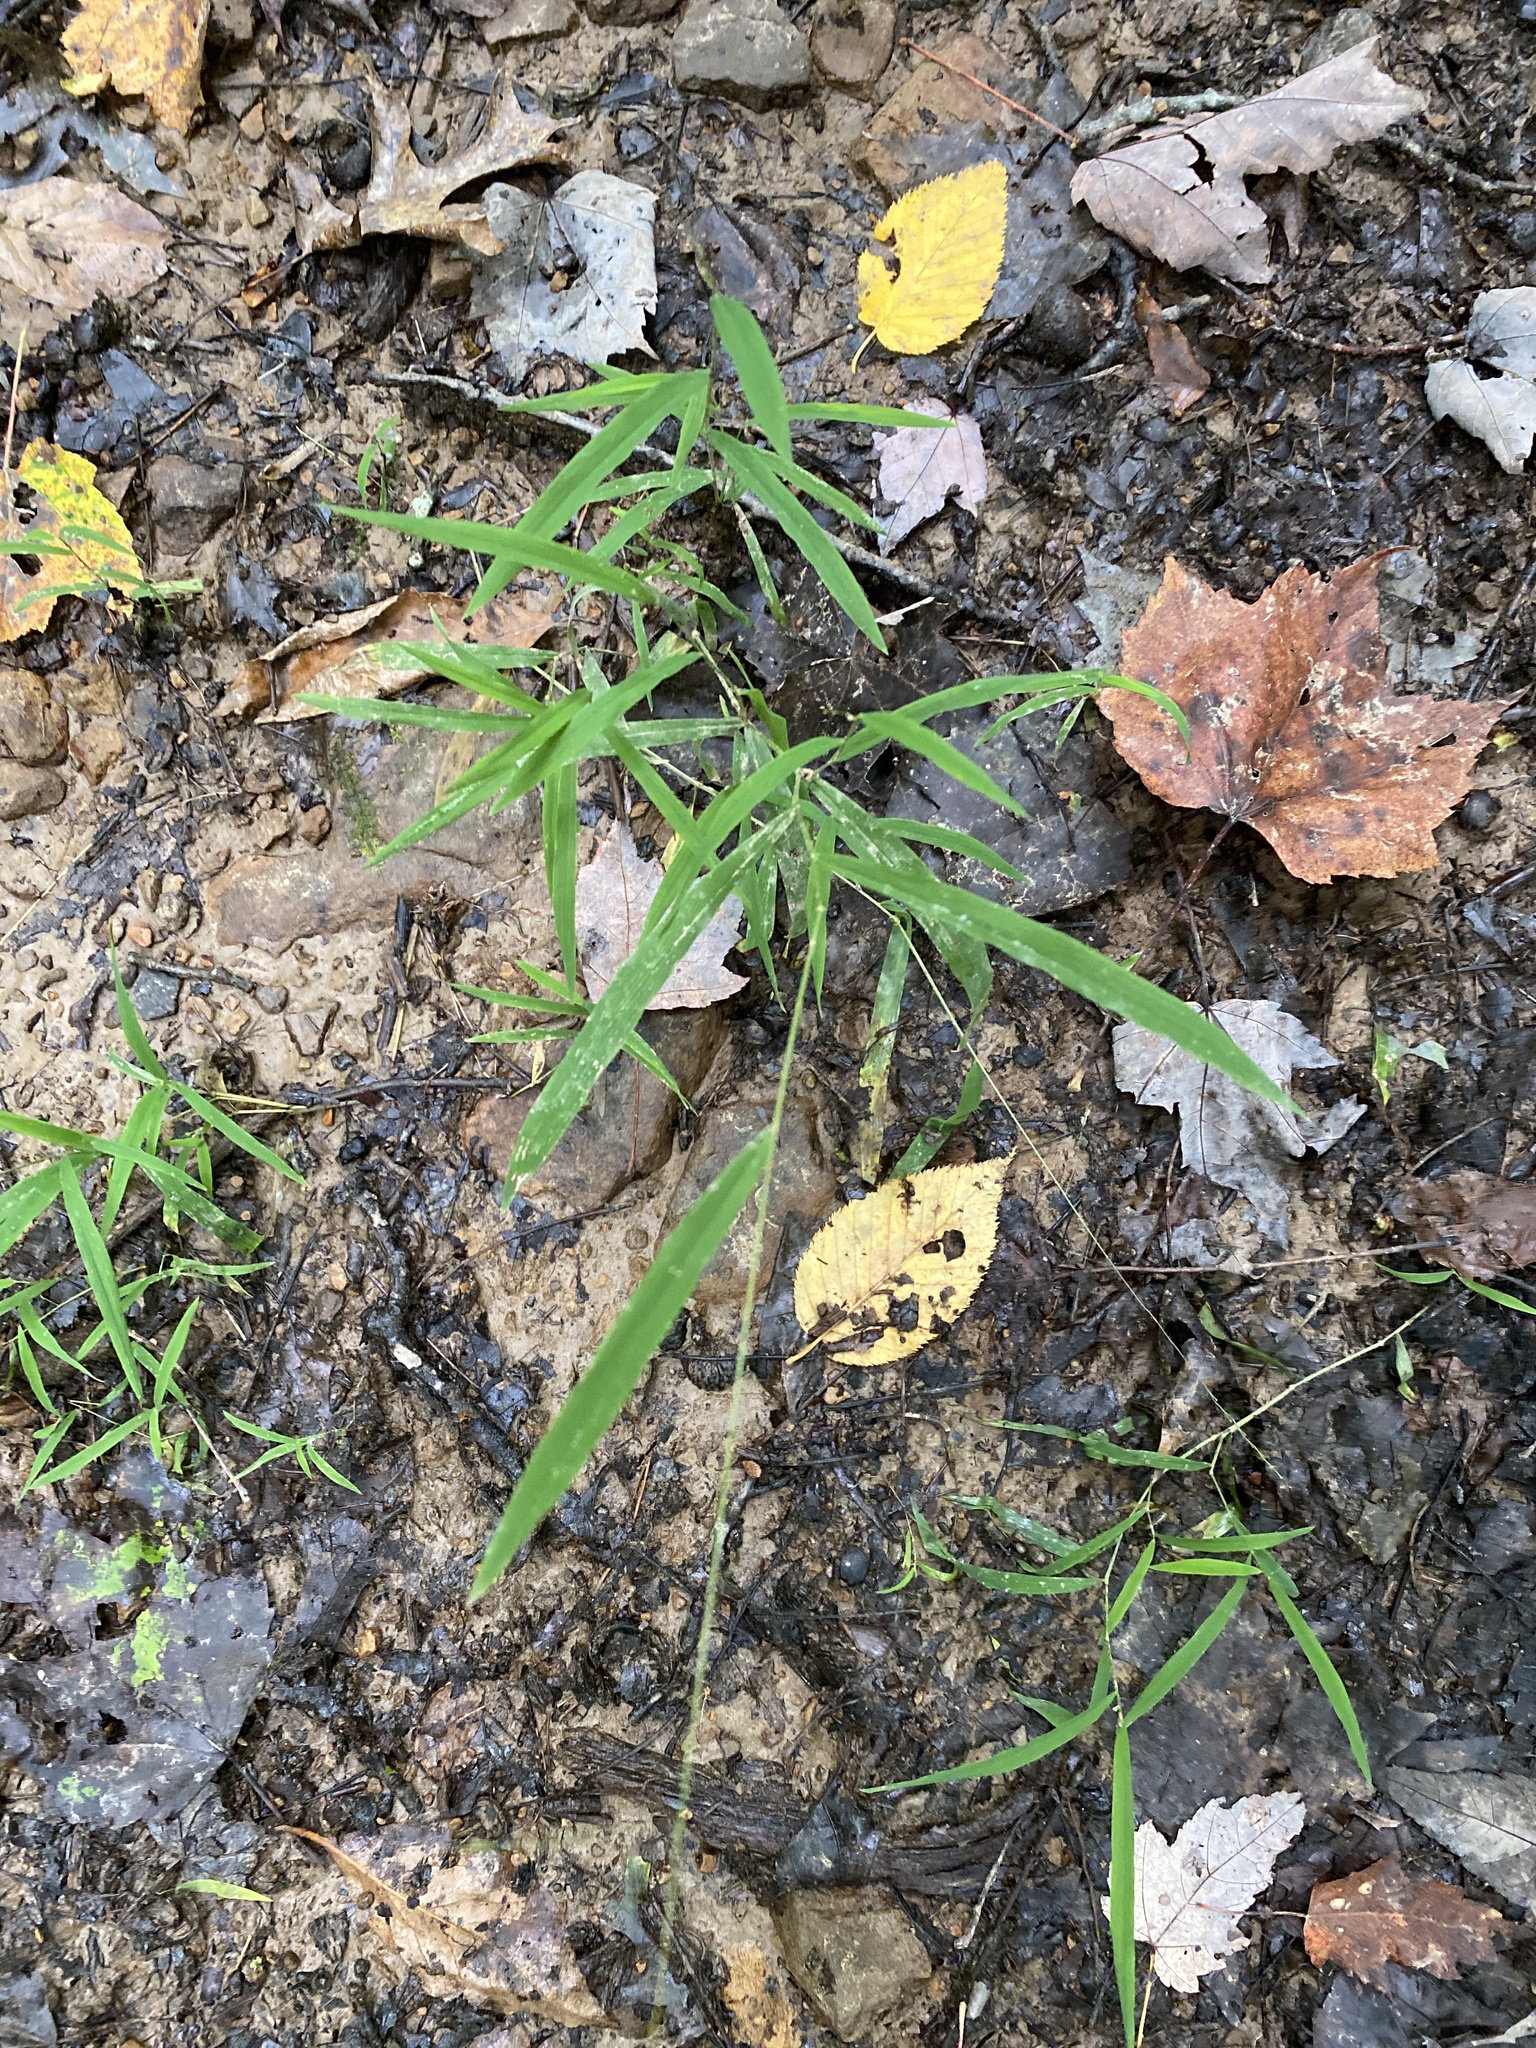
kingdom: Plantae
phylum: Tracheophyta
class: Liliopsida
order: Poales
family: Poaceae
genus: Leersia
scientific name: Leersia virginica
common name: White cutgrass
